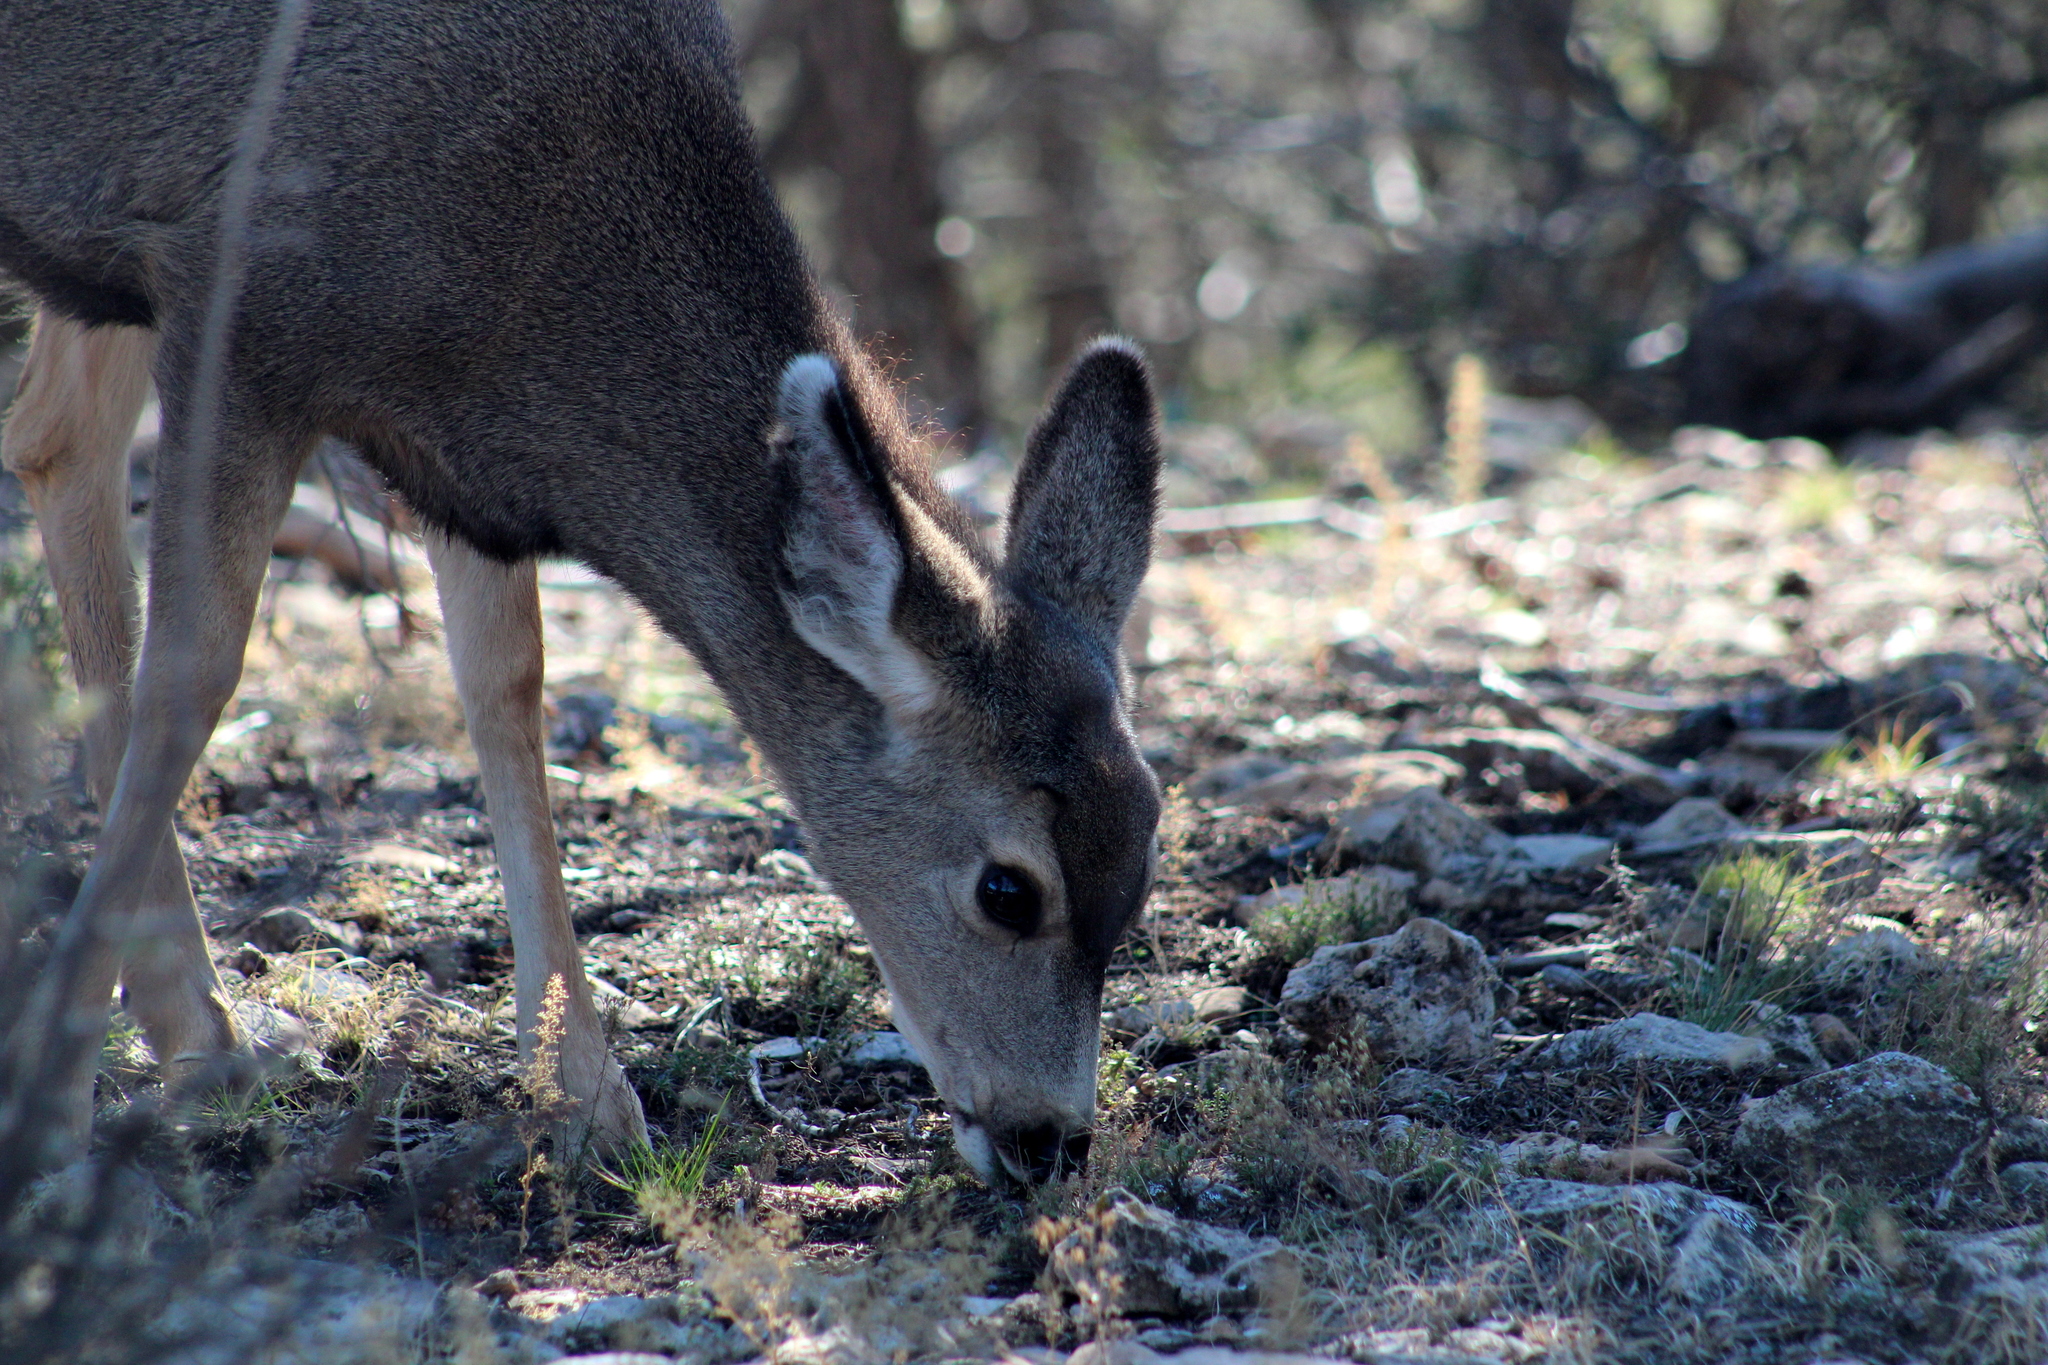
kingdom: Animalia
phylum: Chordata
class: Mammalia
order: Artiodactyla
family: Cervidae
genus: Odocoileus
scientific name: Odocoileus hemionus
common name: Mule deer
